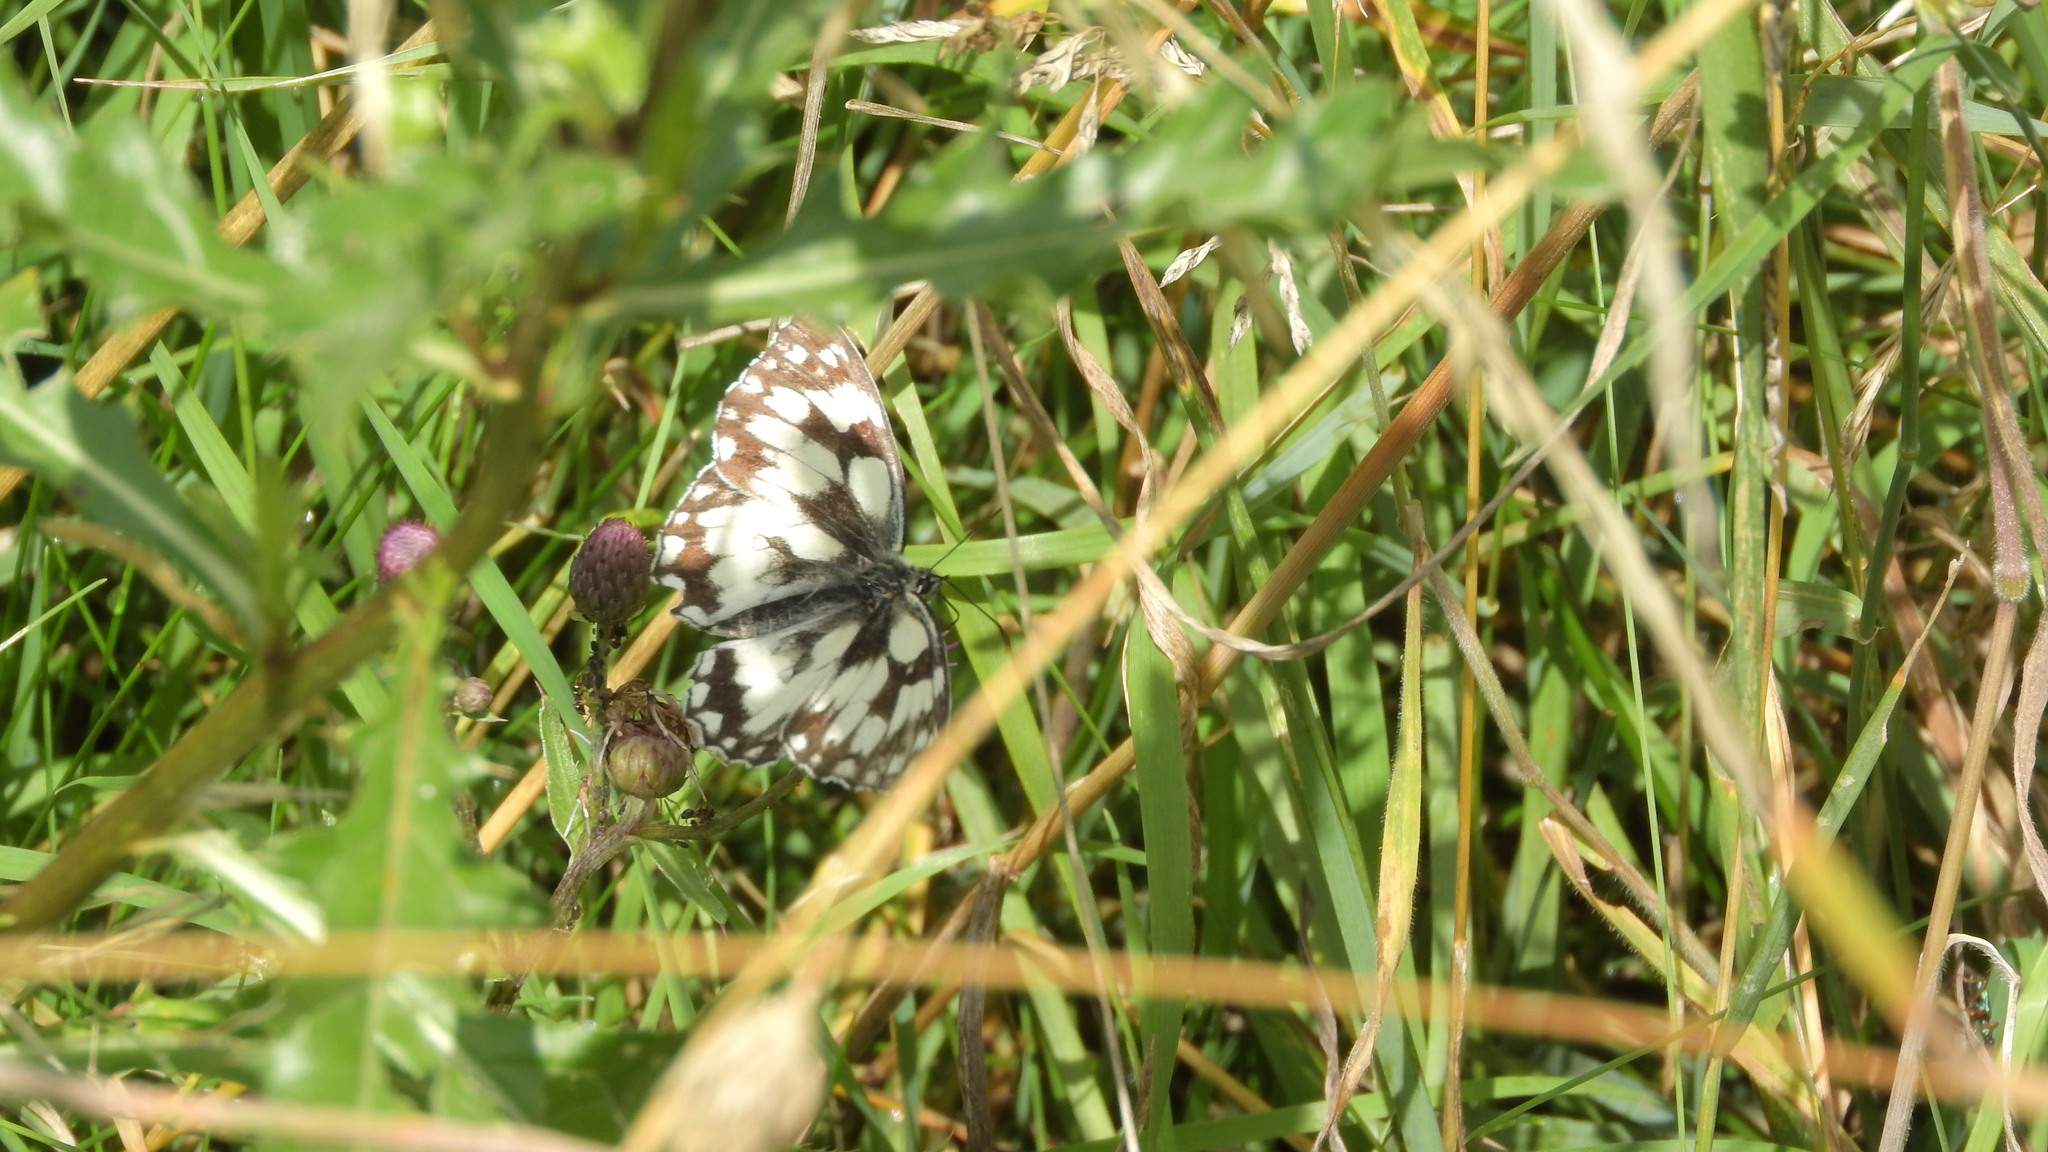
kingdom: Animalia
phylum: Arthropoda
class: Insecta
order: Lepidoptera
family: Nymphalidae
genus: Melanargia
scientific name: Melanargia galathea
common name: Marbled white
